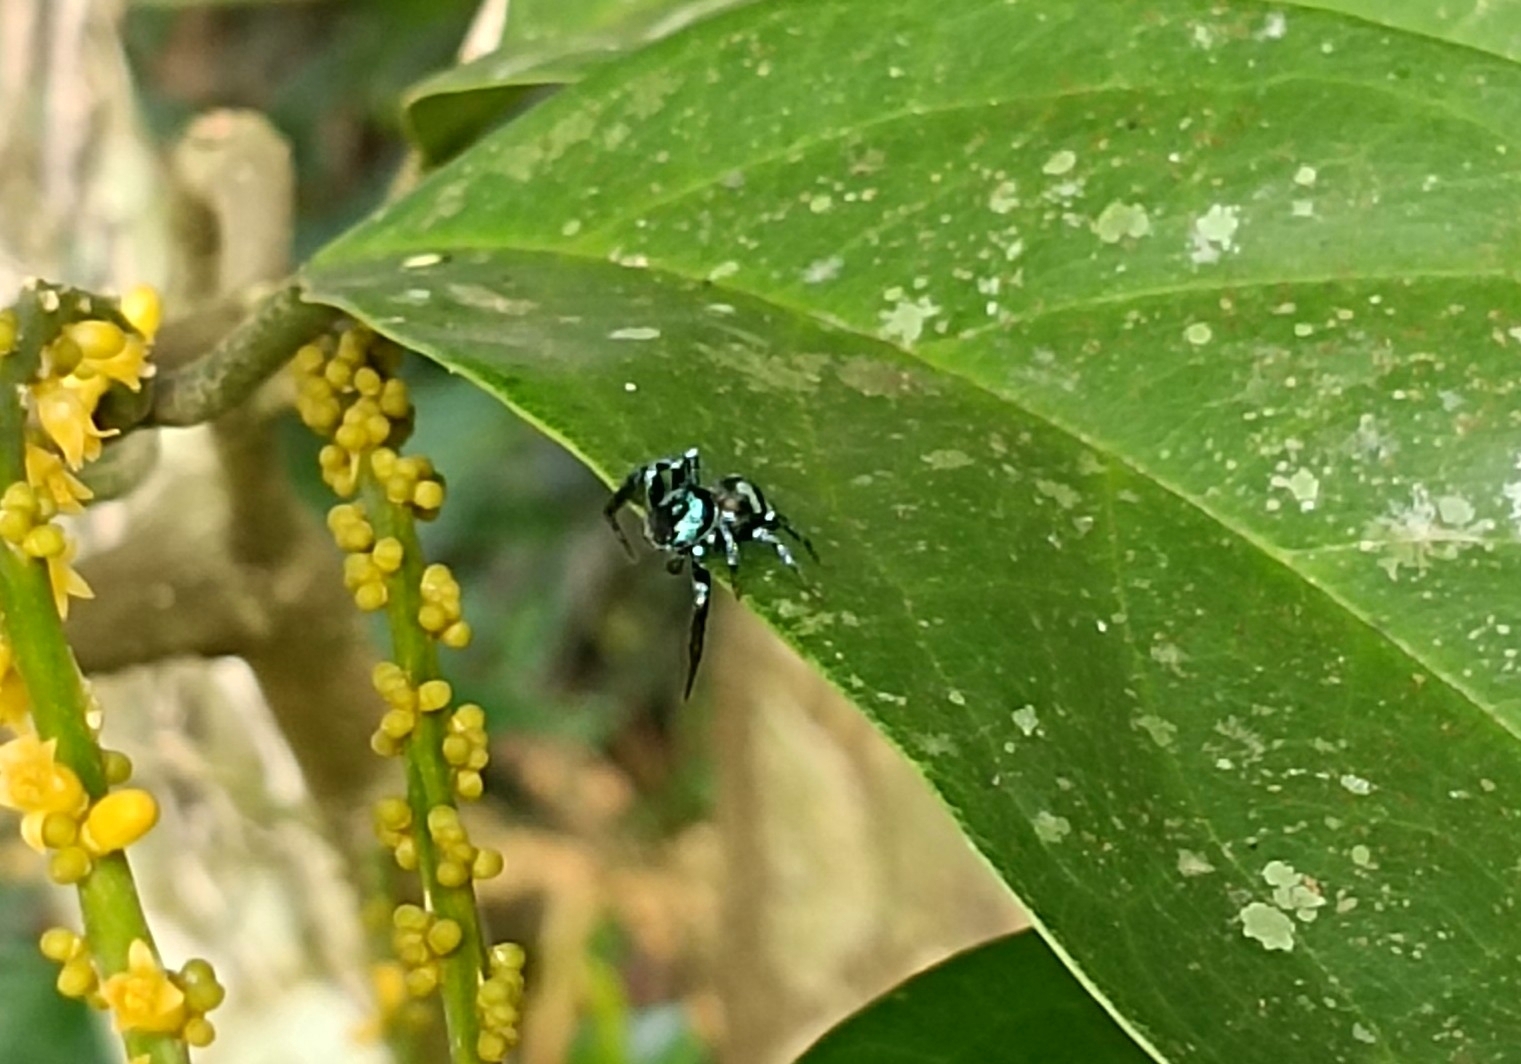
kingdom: Animalia
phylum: Arthropoda
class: Arachnida
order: Araneae
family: Salticidae
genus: Thiania
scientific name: Thiania bhamoensis
